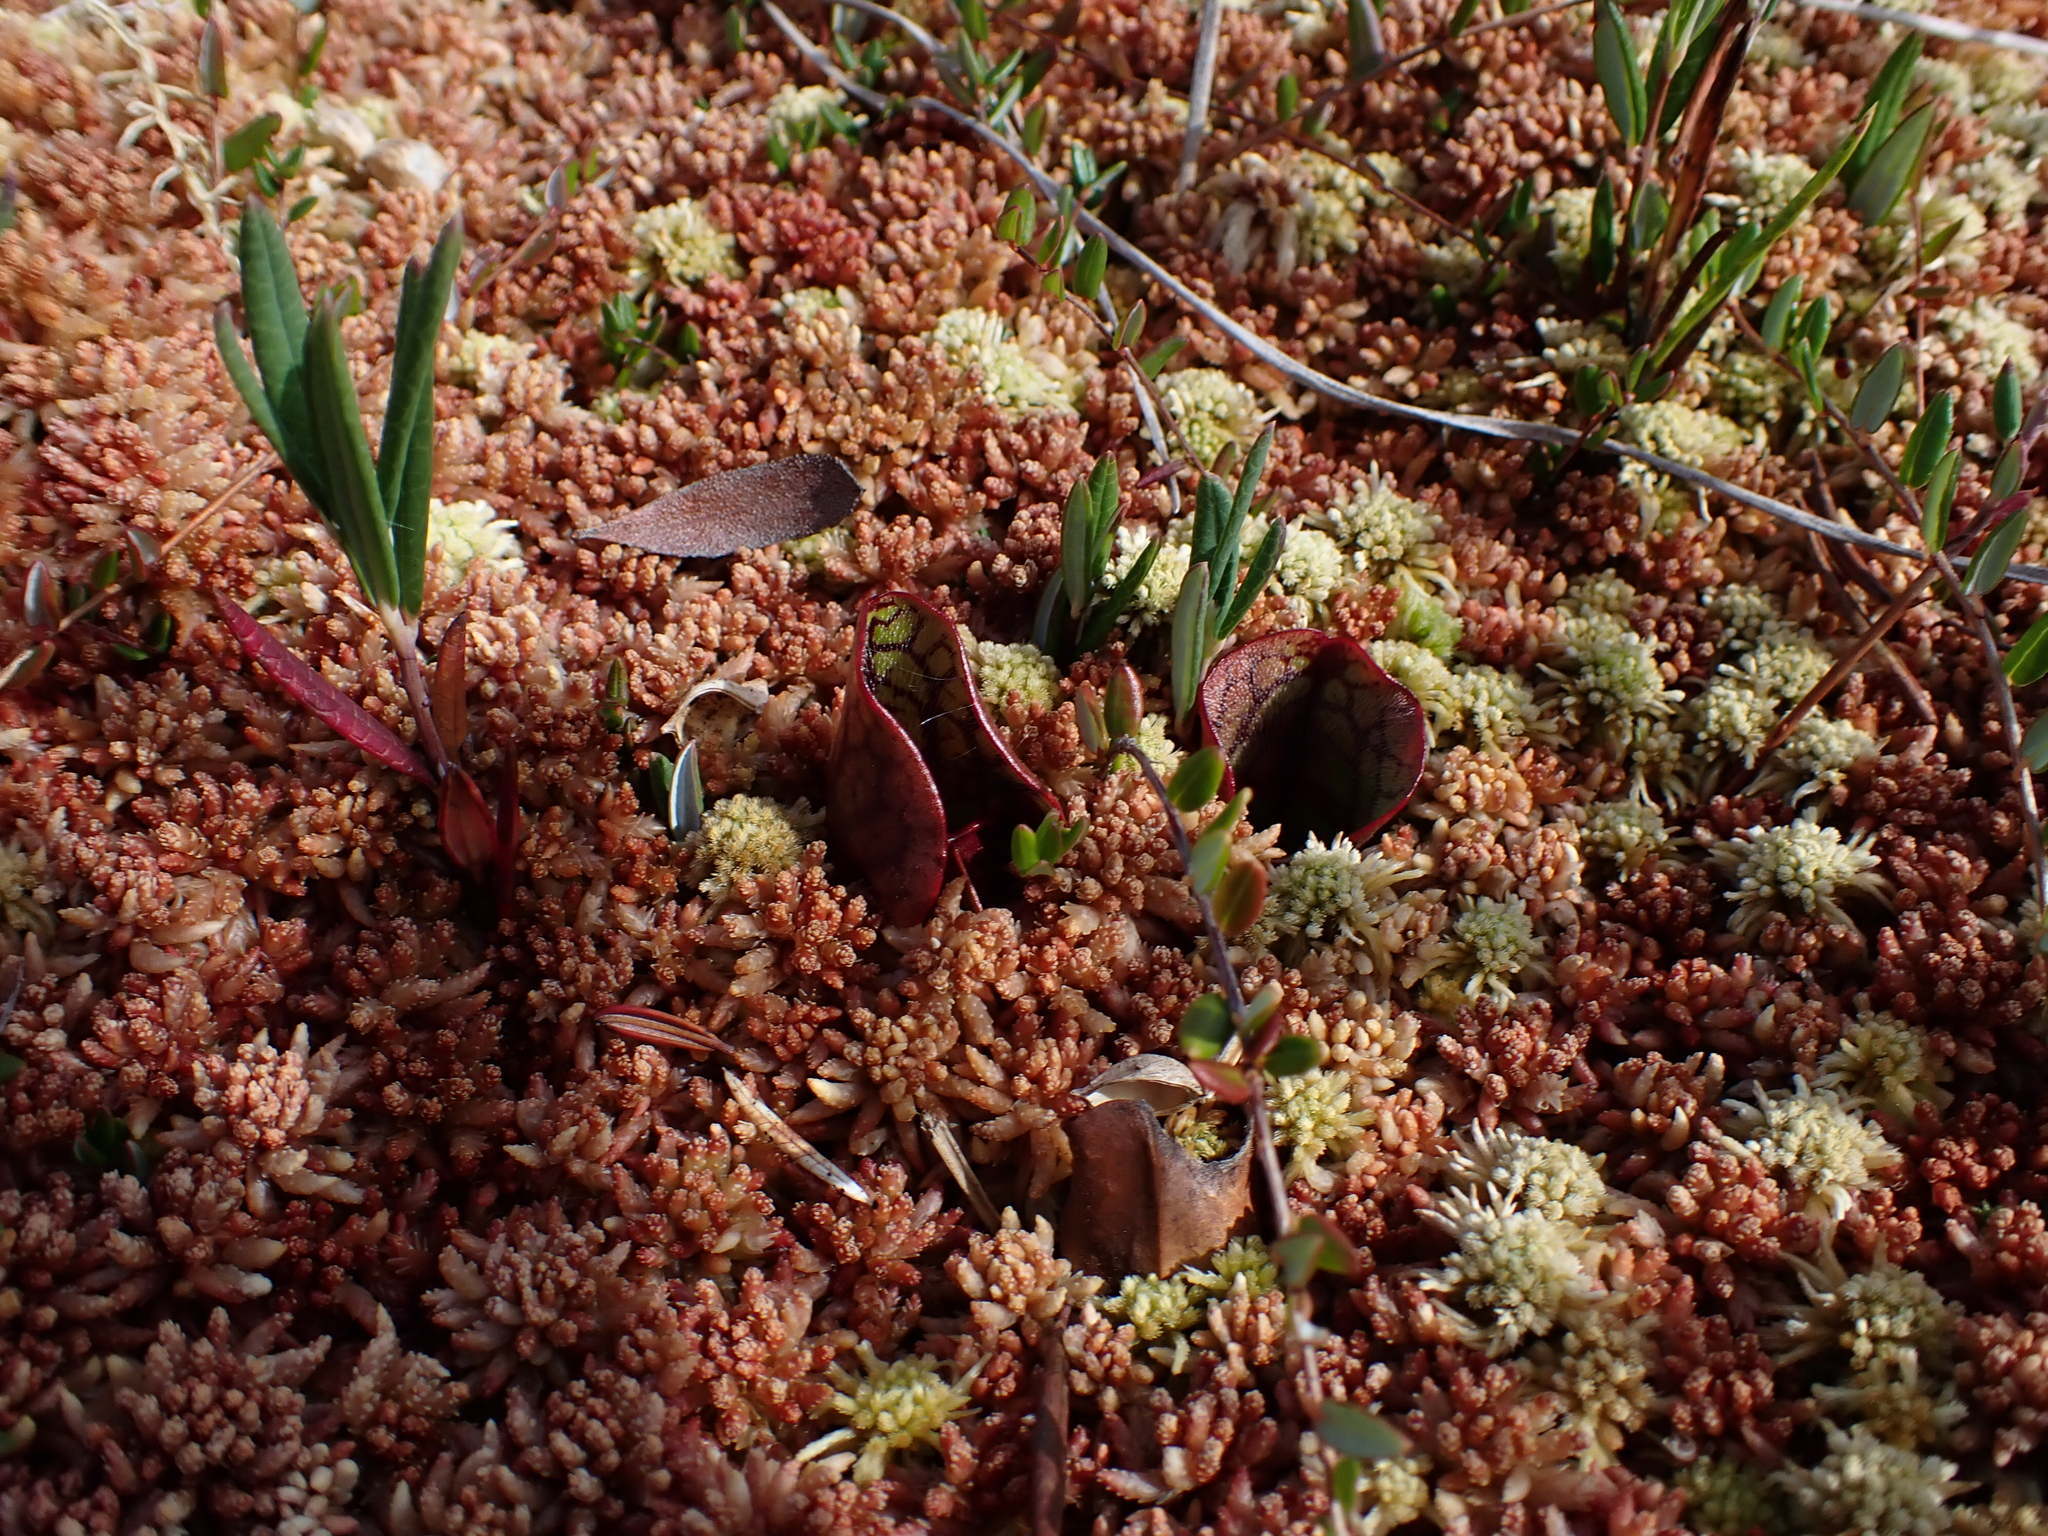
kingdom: Plantae
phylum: Tracheophyta
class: Magnoliopsida
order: Ericales
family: Sarraceniaceae
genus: Sarracenia
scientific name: Sarracenia purpurea
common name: Pitcherplant
